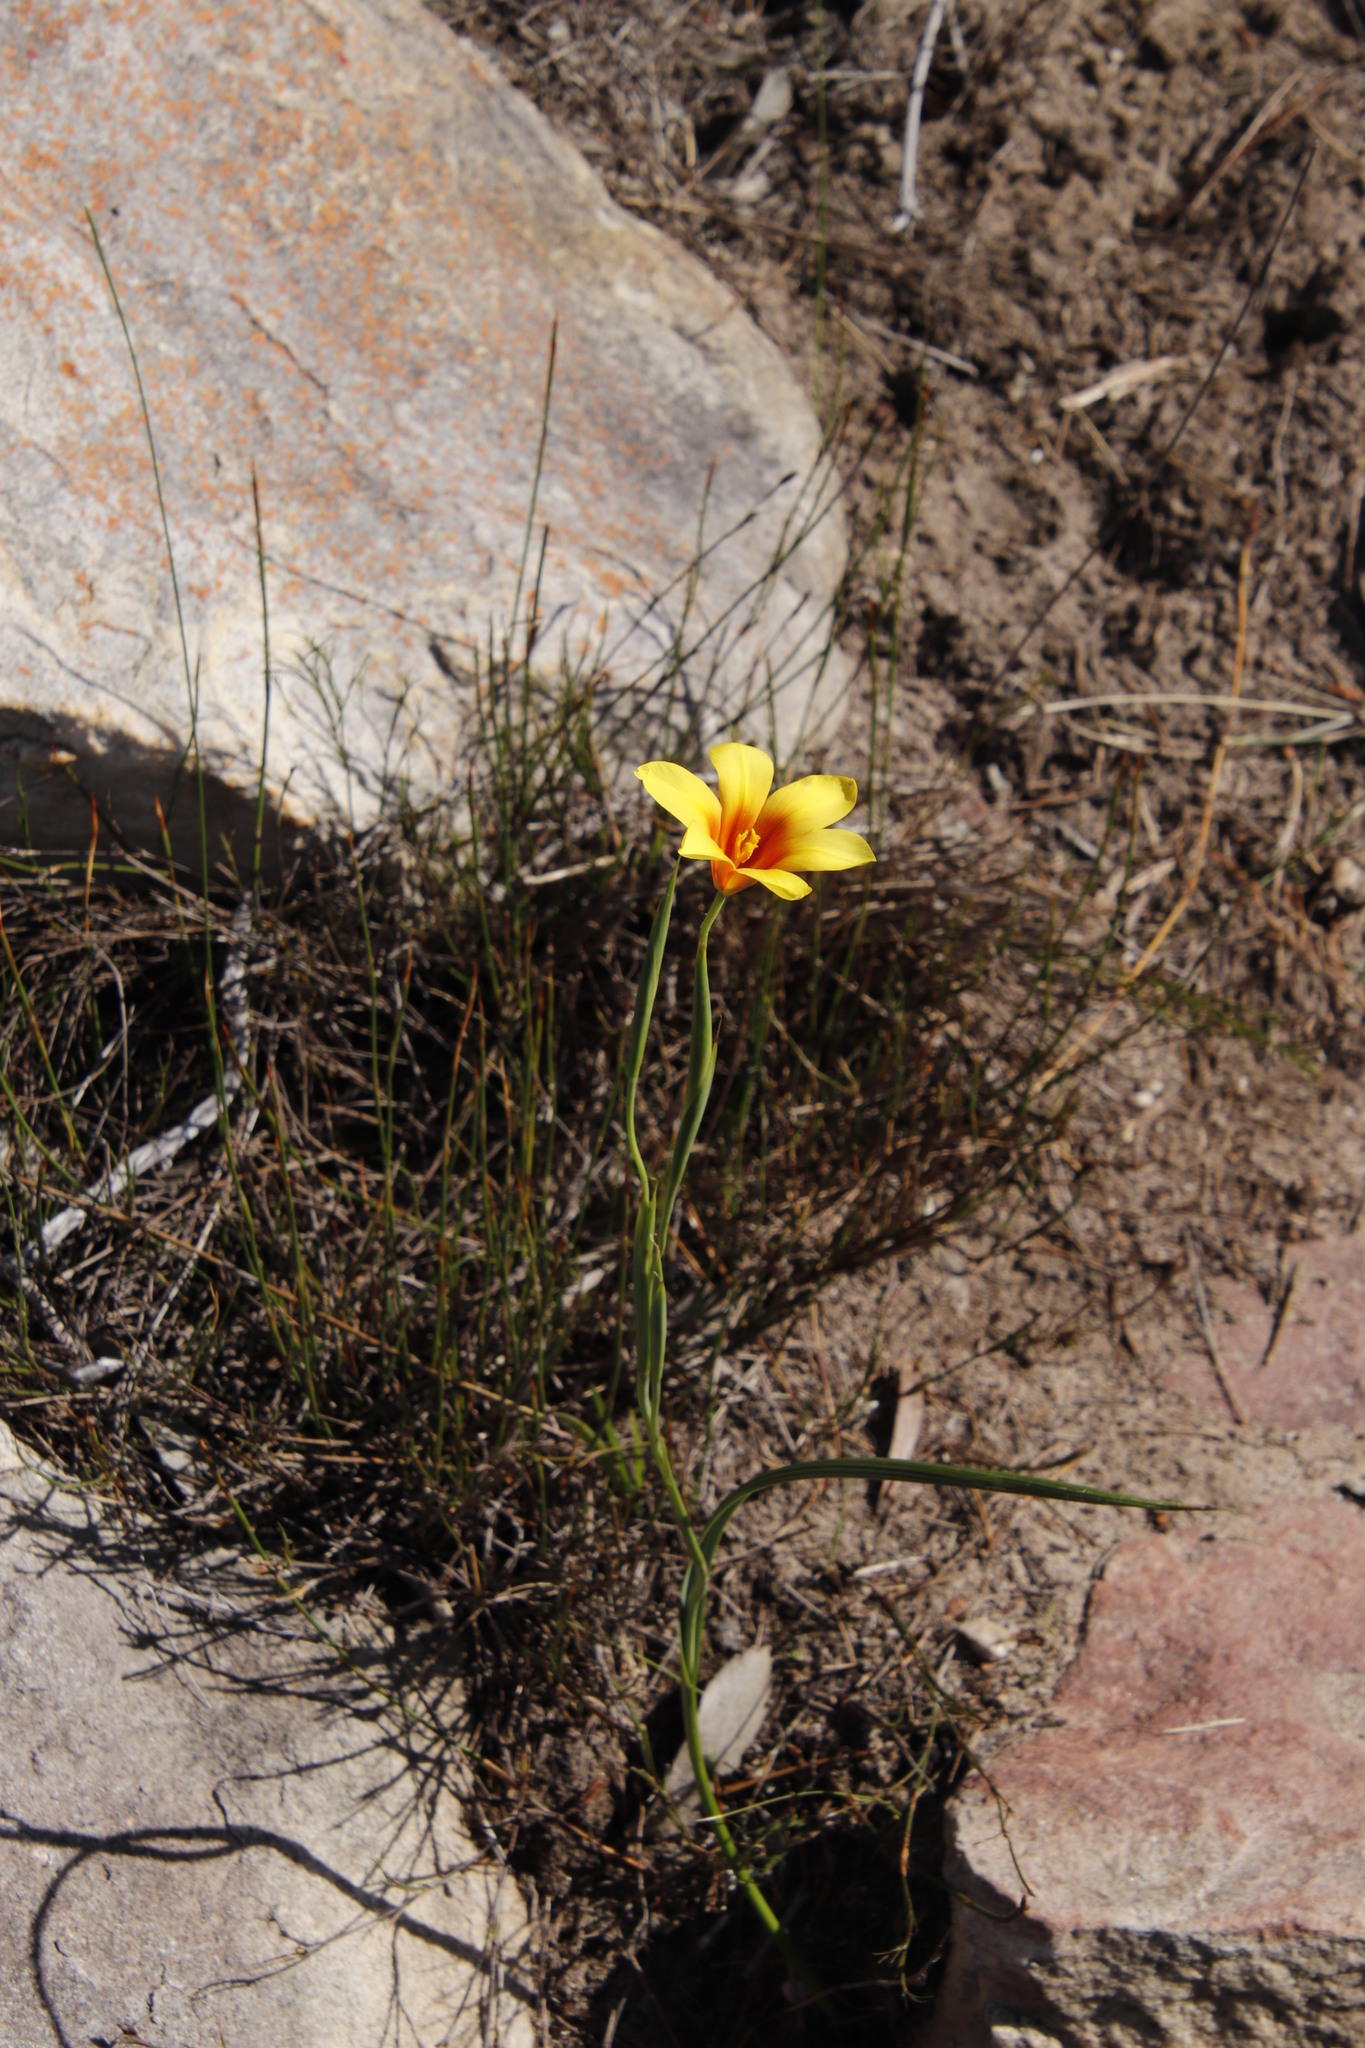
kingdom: Plantae
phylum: Tracheophyta
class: Liliopsida
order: Asparagales
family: Iridaceae
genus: Moraea
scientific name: Moraea ochroleuca
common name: Red tulp
